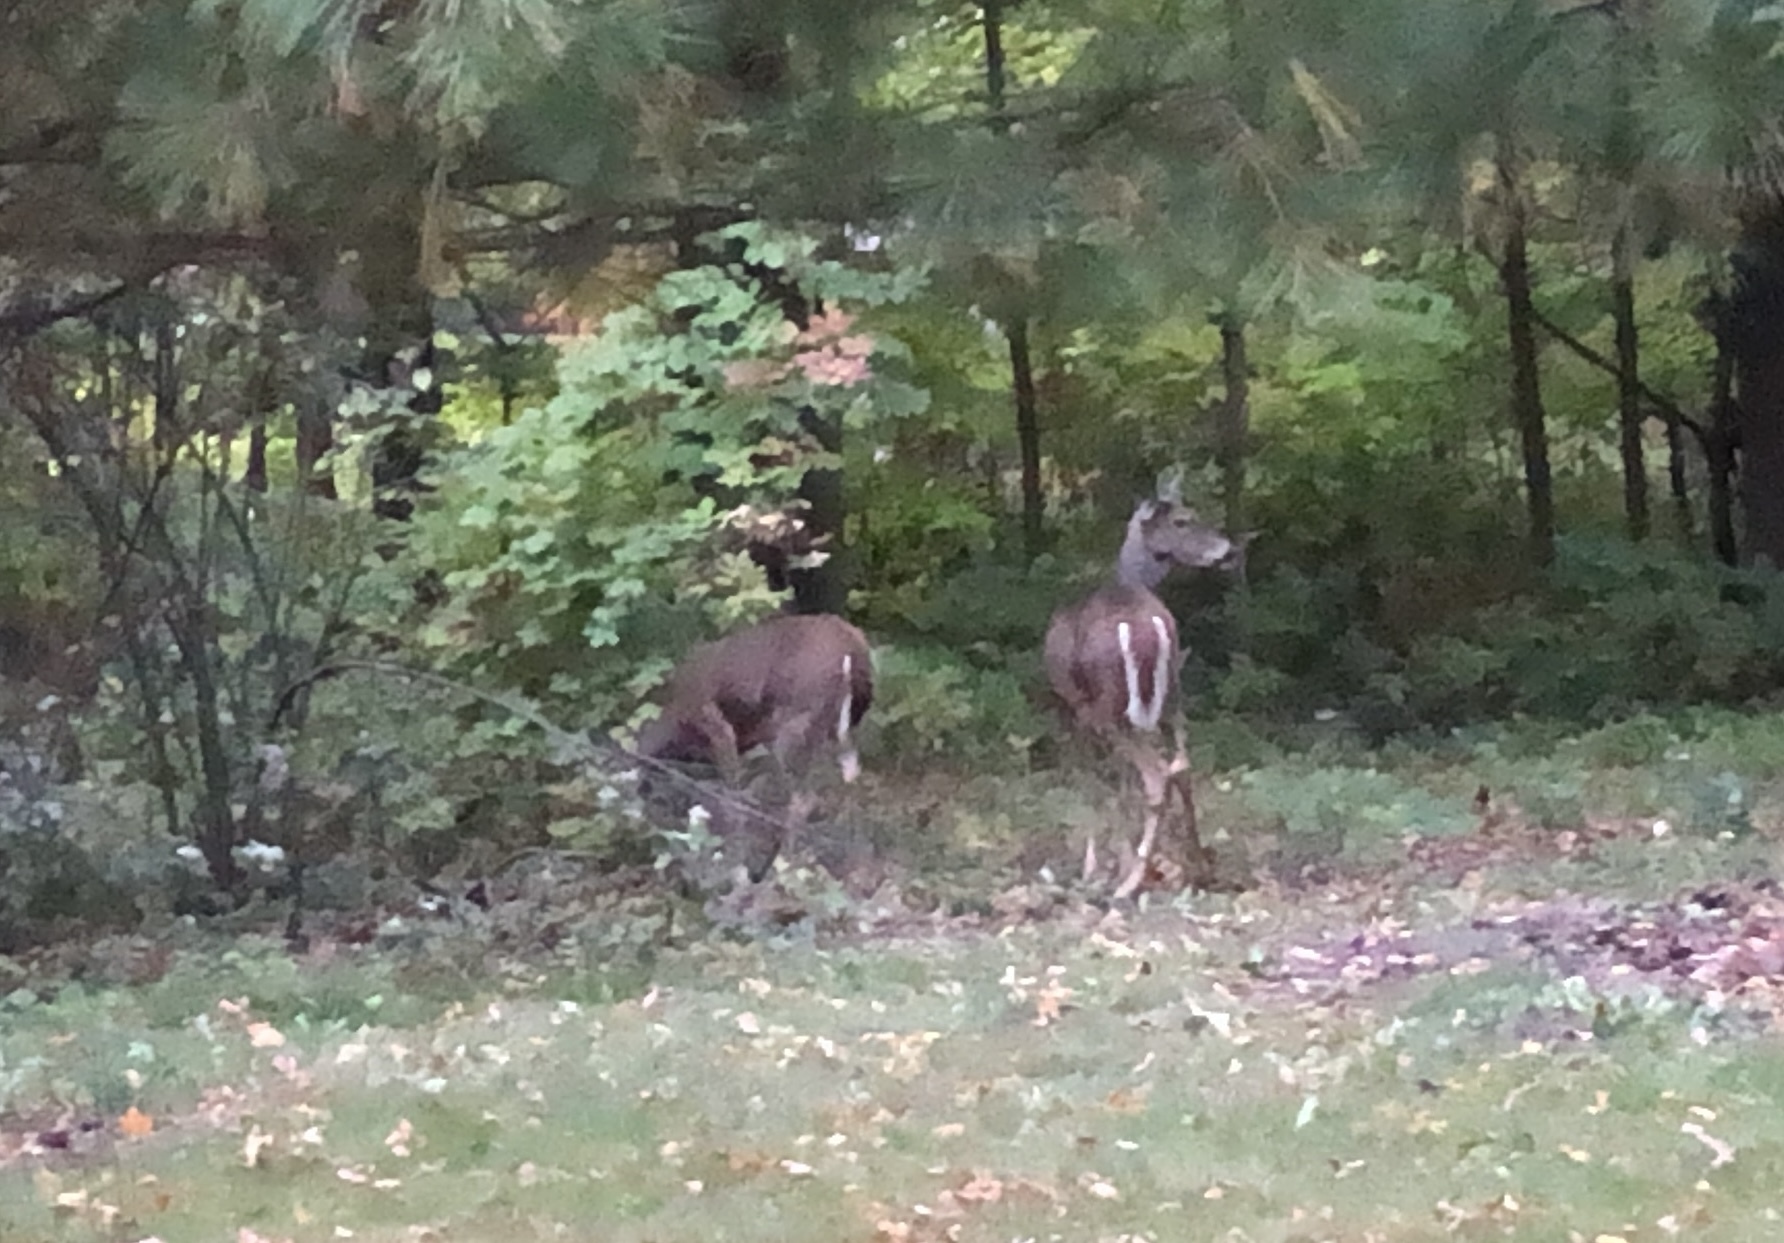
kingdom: Animalia
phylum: Chordata
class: Mammalia
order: Artiodactyla
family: Cervidae
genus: Odocoileus
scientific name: Odocoileus virginianus
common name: White-tailed deer
